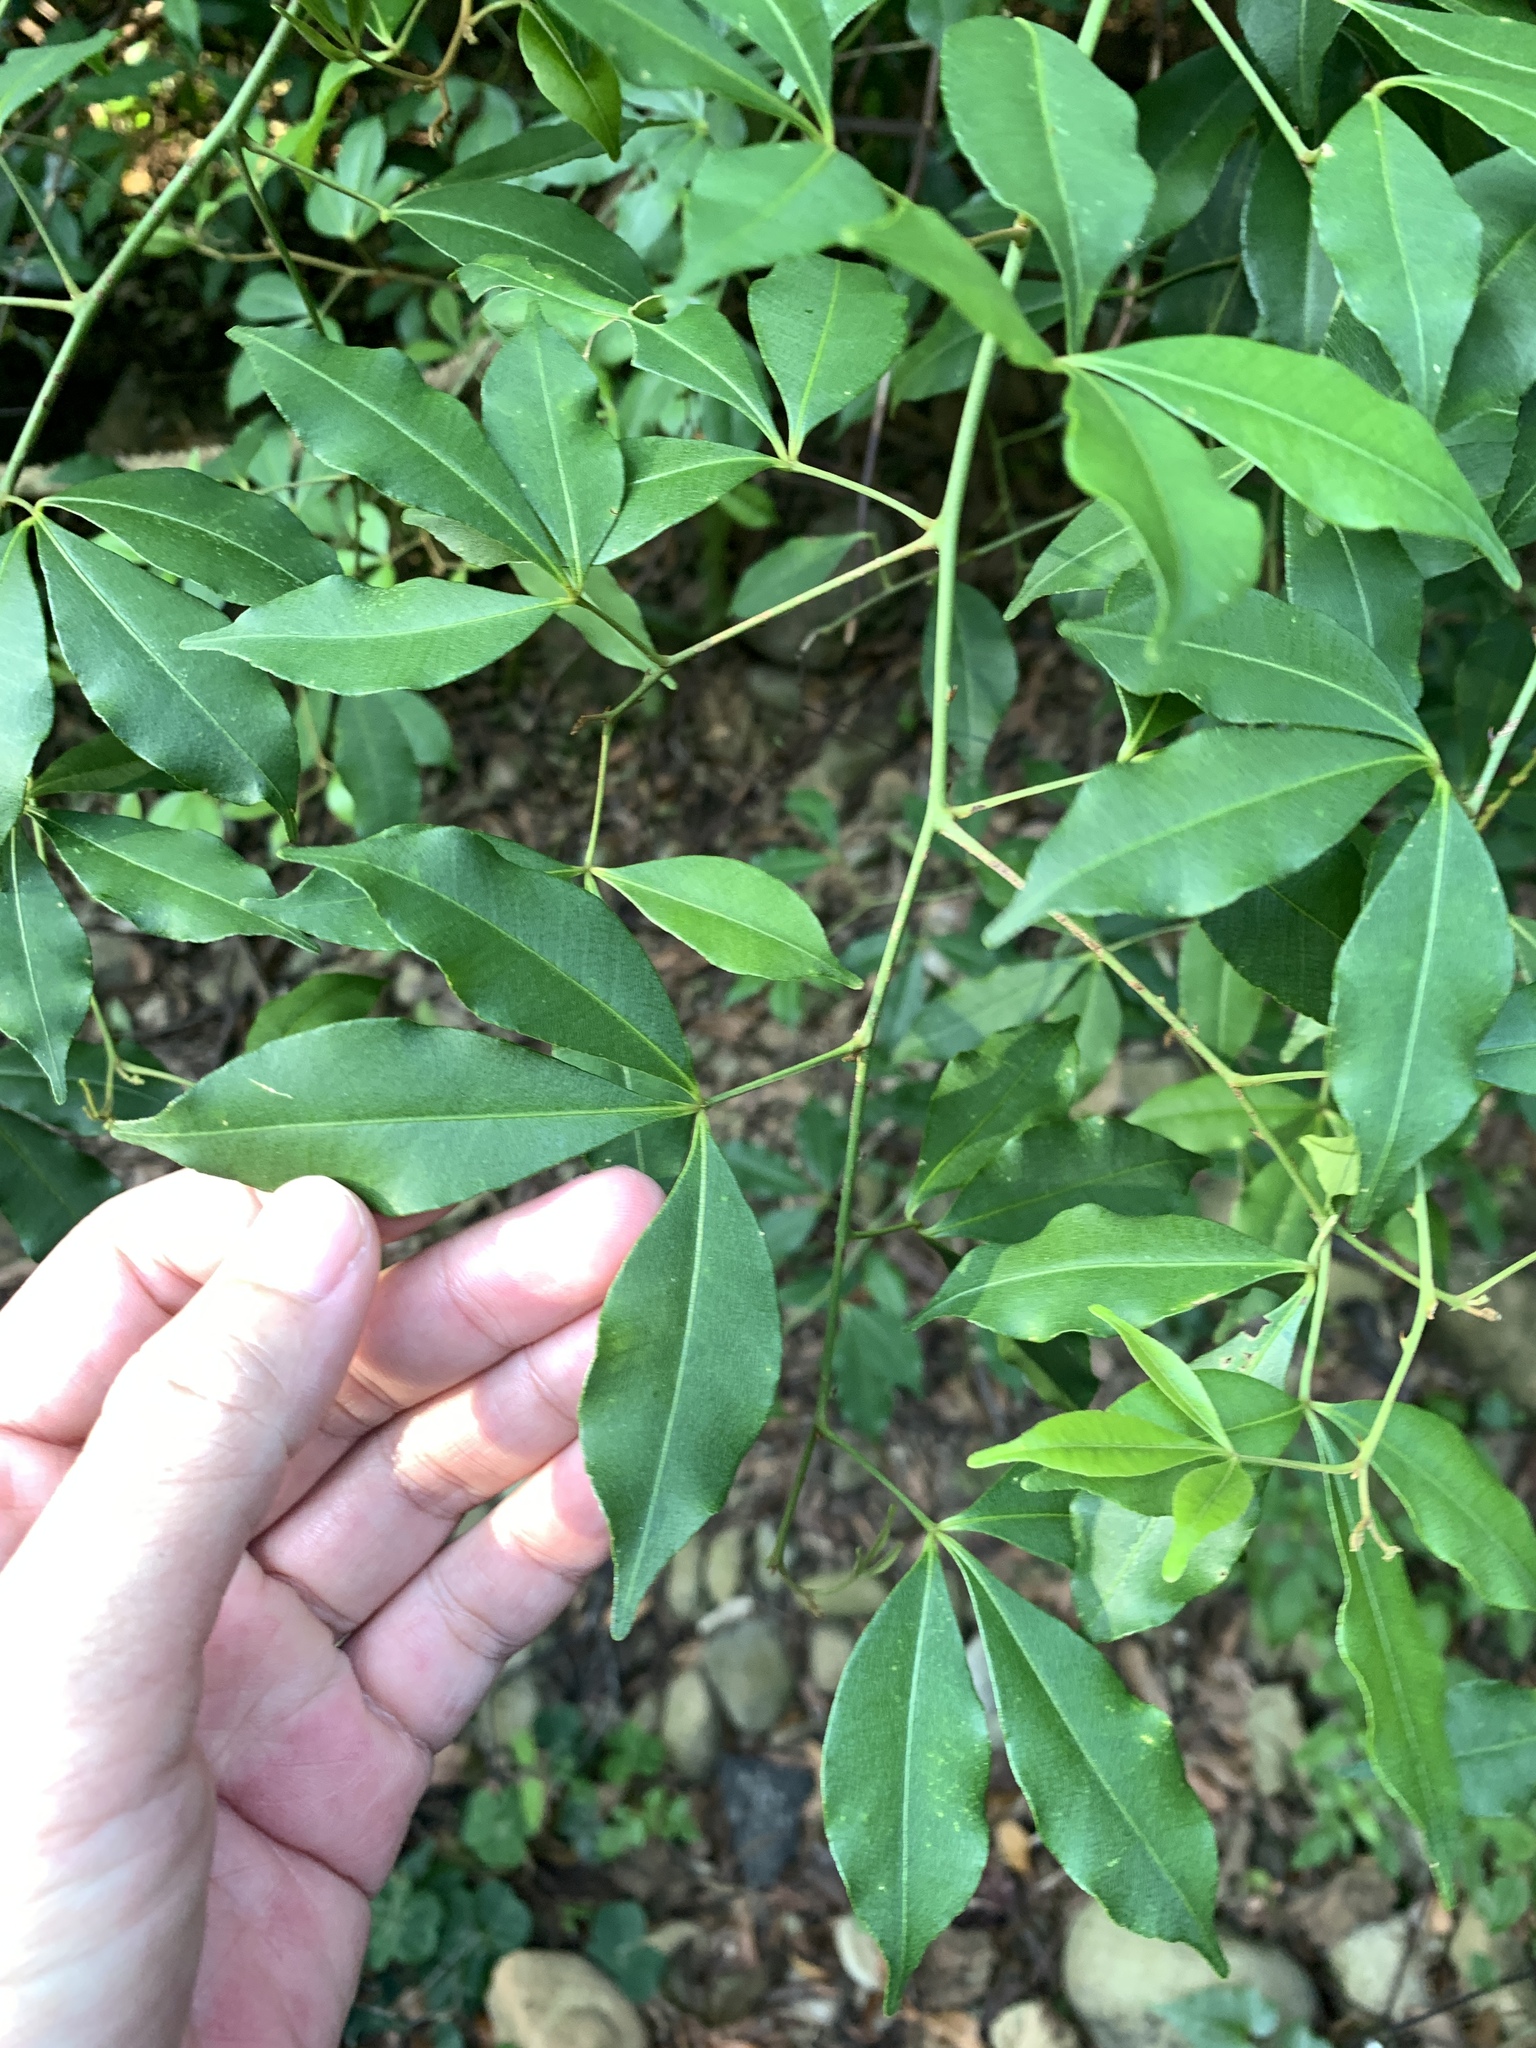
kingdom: Plantae
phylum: Tracheophyta
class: Magnoliopsida
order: Sapindales
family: Rutaceae
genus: Zanthoxylum
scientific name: Zanthoxylum asiaticum
